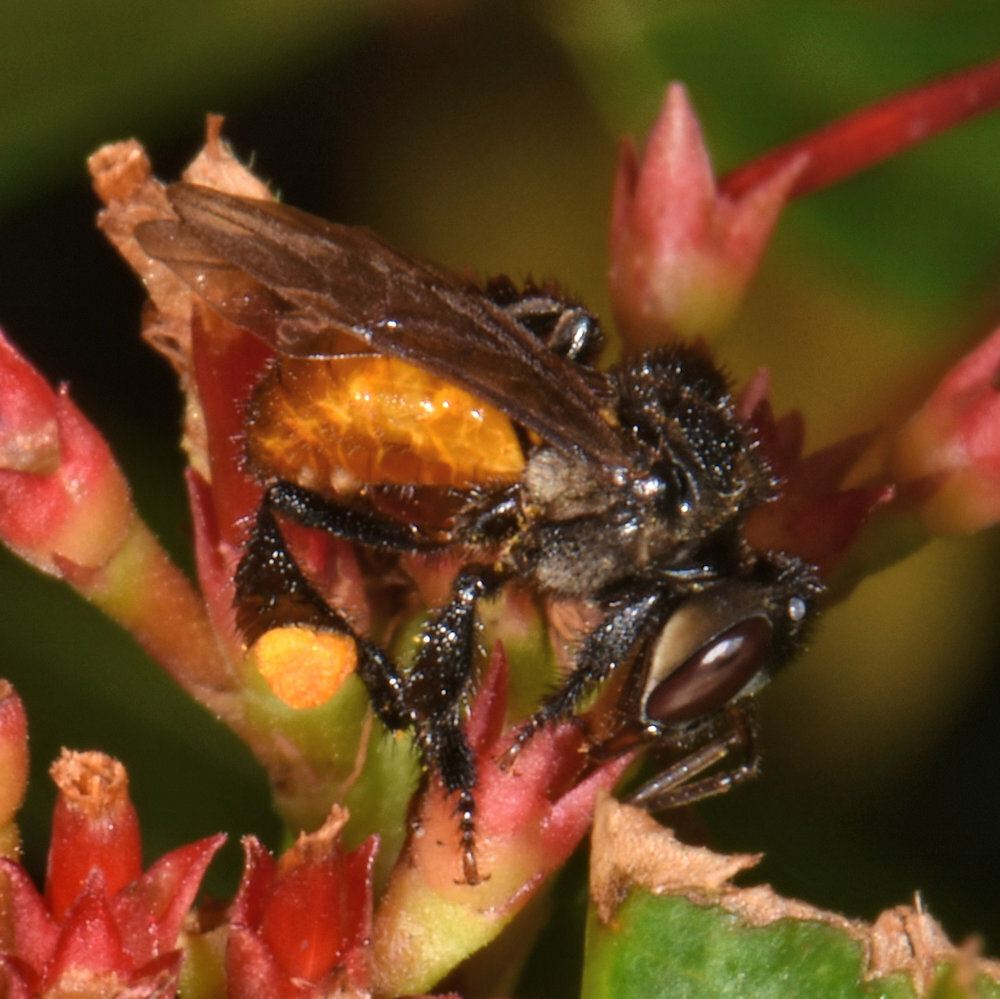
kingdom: Animalia
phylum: Arthropoda
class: Insecta
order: Hymenoptera
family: Apidae
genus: Trigona
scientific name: Trigona fulviventris
